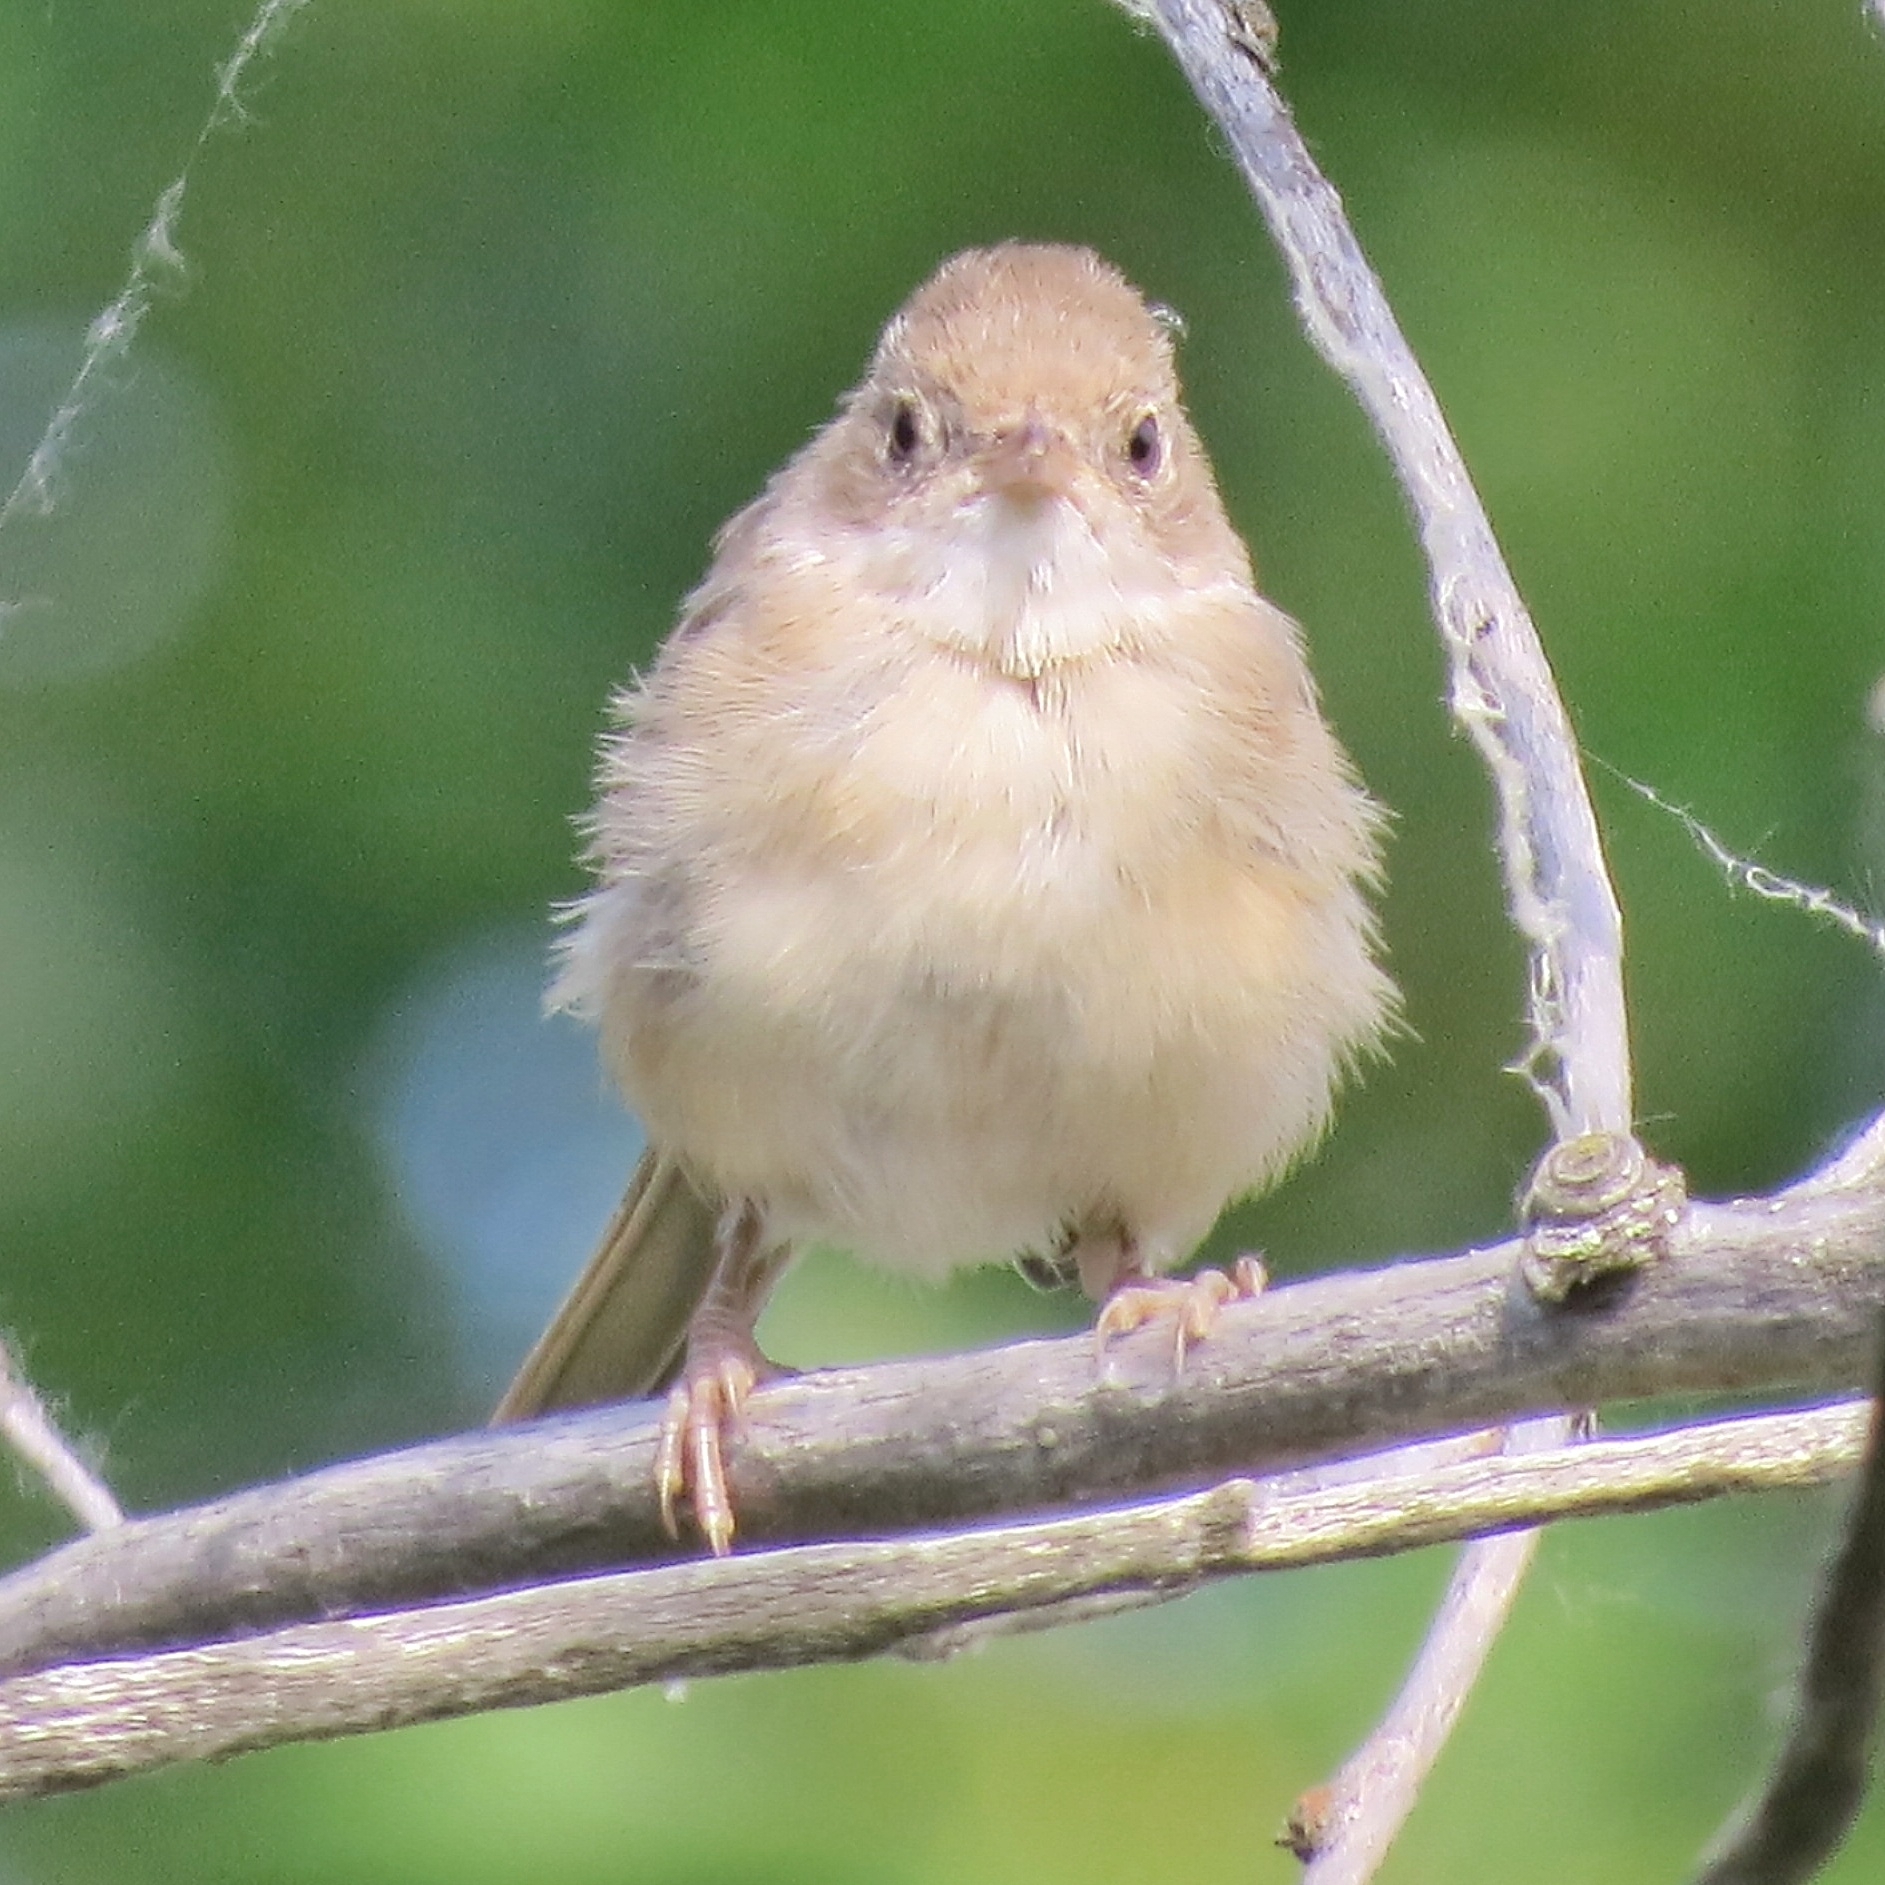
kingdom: Animalia
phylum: Chordata
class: Aves
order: Passeriformes
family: Sylviidae
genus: Sylvia
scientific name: Sylvia communis
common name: Common whitethroat
